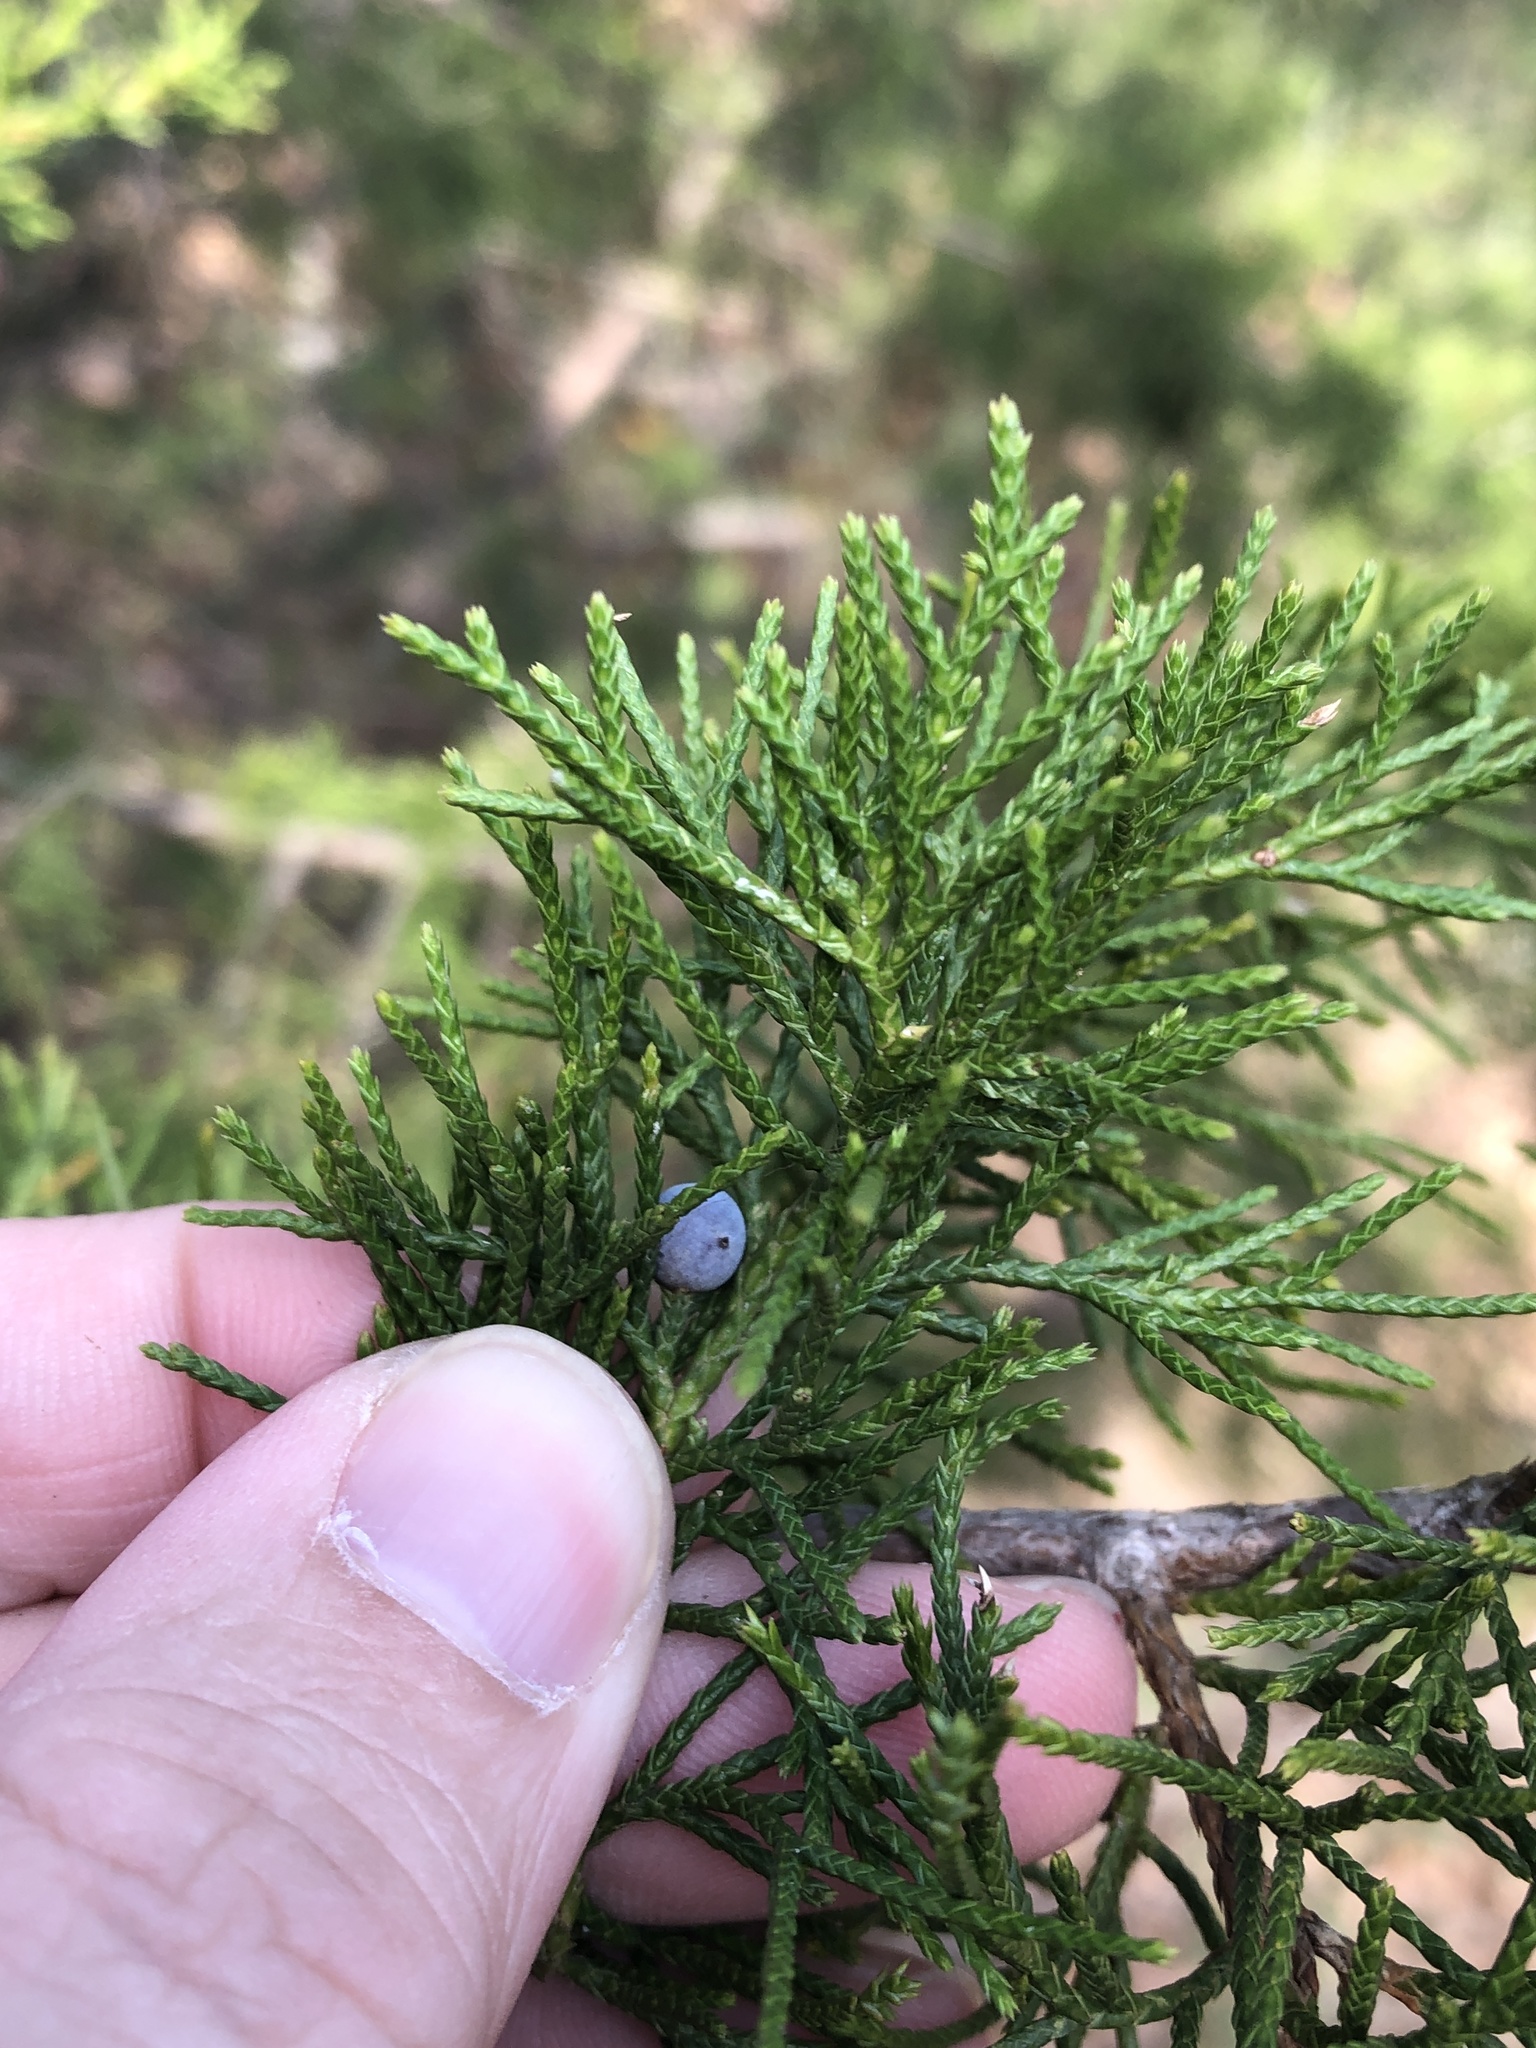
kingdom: Plantae
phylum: Tracheophyta
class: Pinopsida
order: Pinales
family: Cupressaceae
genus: Juniperus
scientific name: Juniperus virginiana
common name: Red juniper
